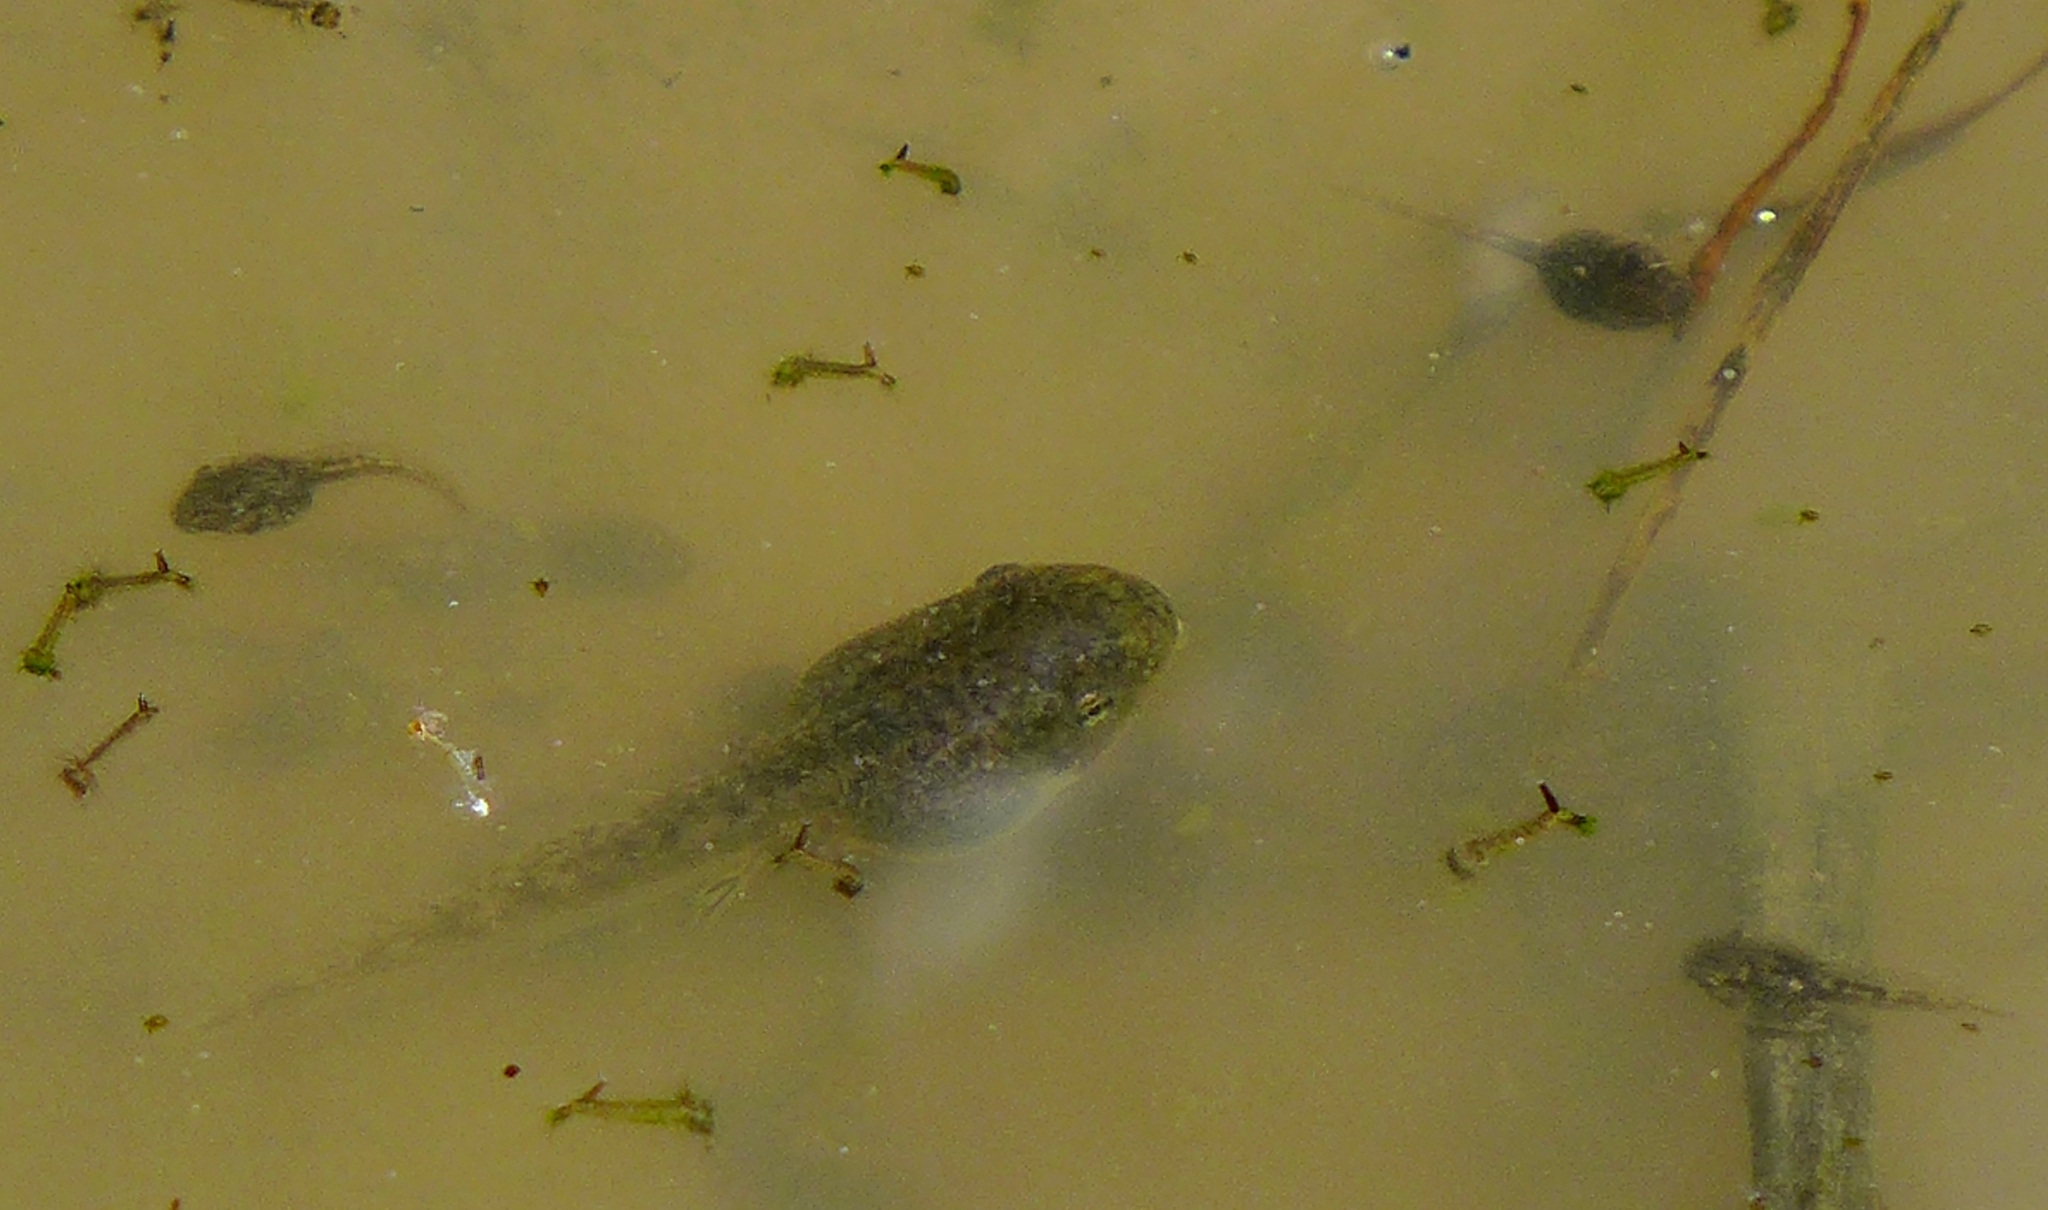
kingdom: Animalia
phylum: Chordata
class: Amphibia
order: Anura
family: Hylidae
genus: Pseudacris
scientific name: Pseudacris regilla
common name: Pacific chorus frog
